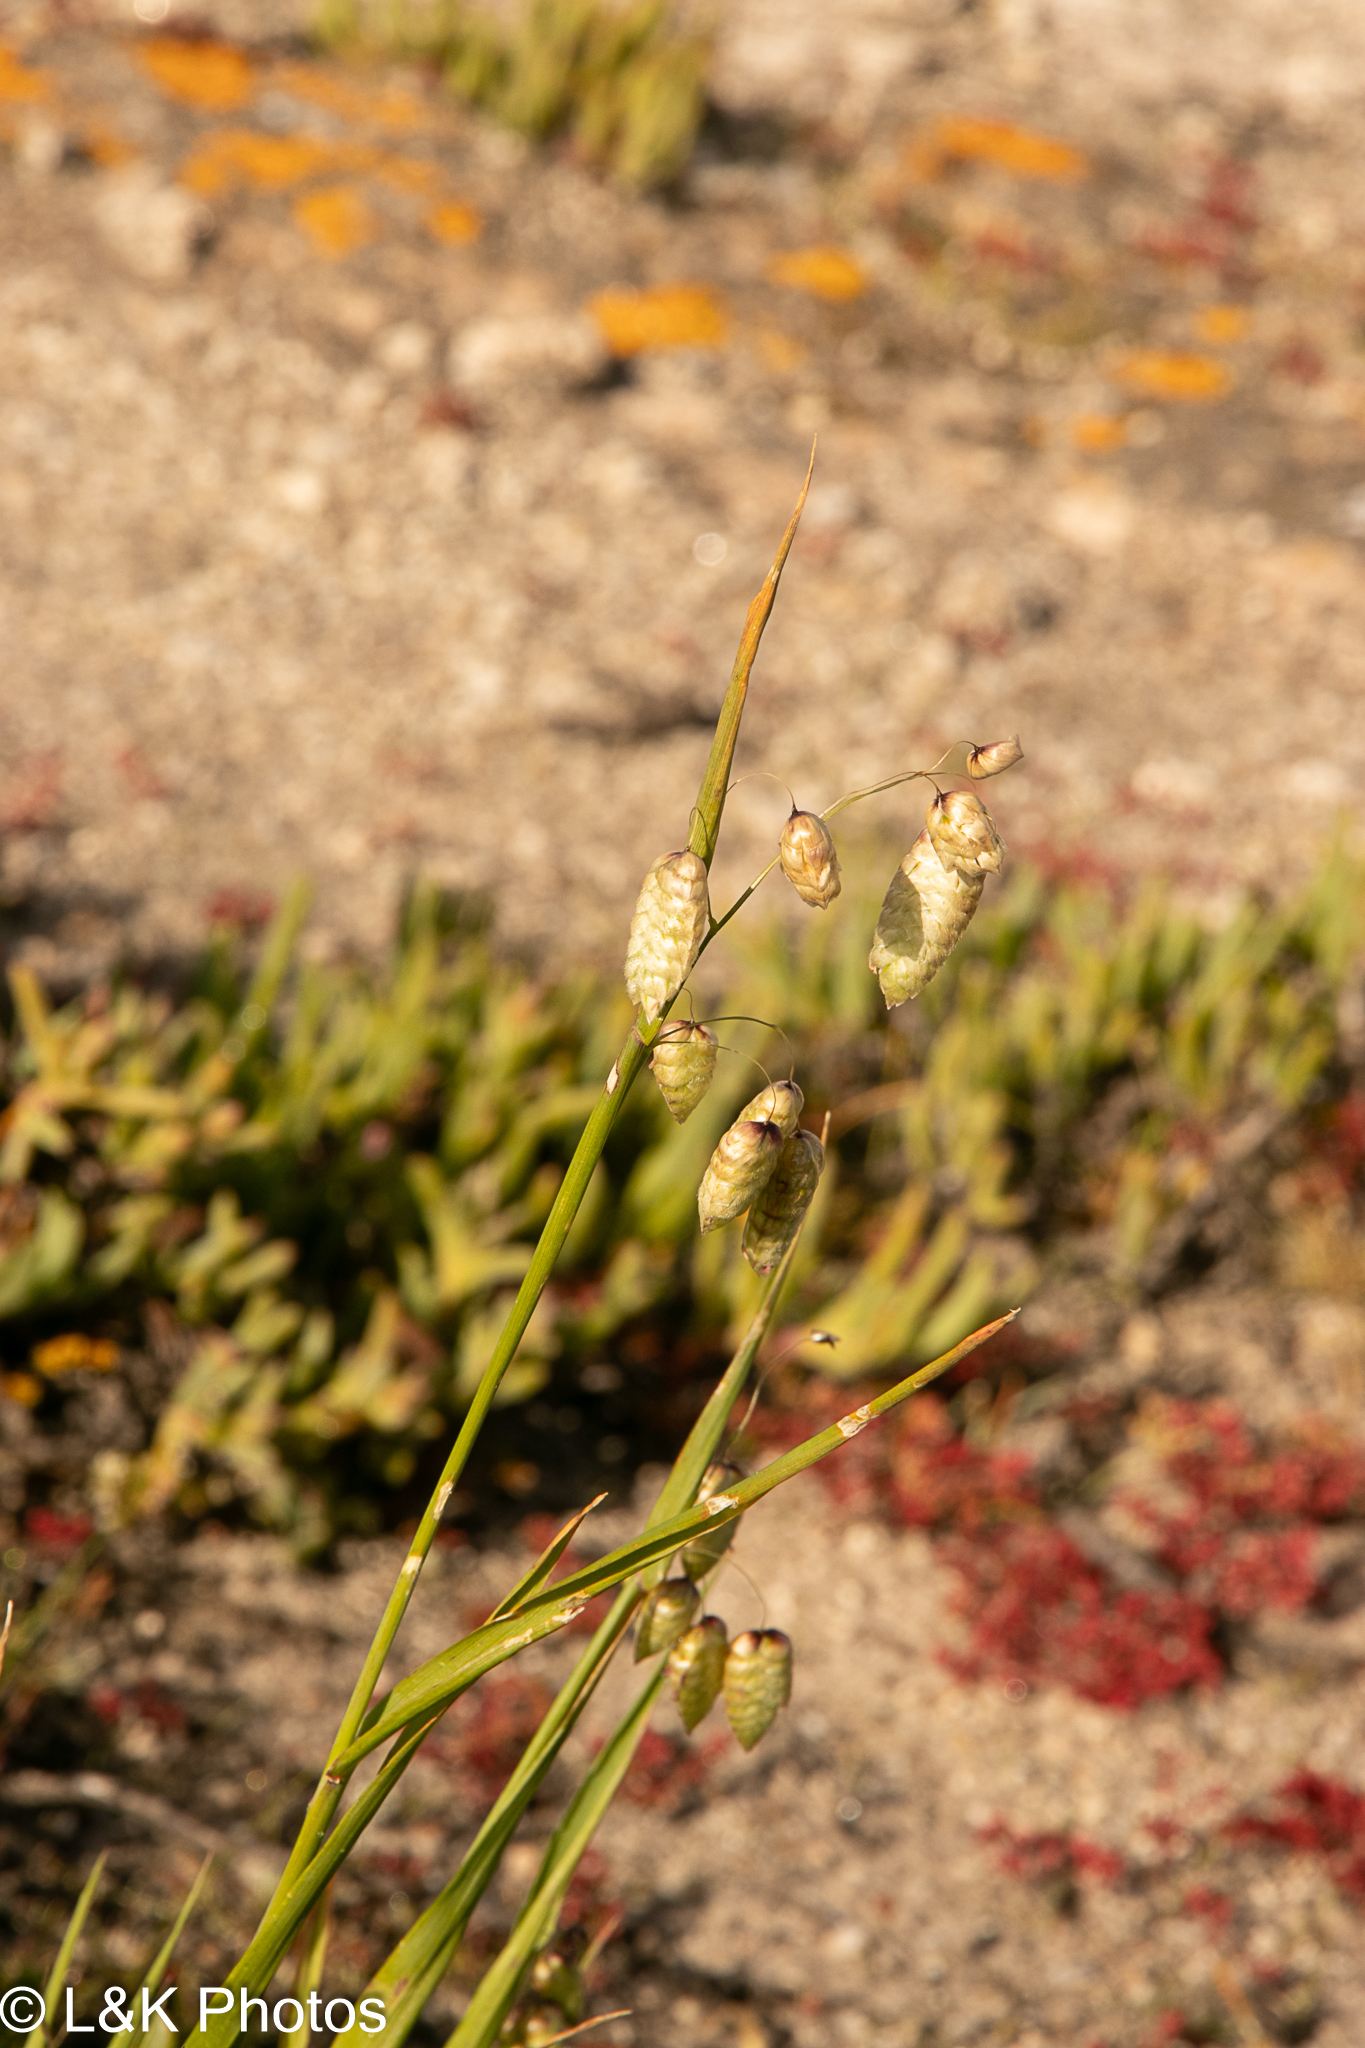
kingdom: Plantae
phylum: Tracheophyta
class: Liliopsida
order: Poales
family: Poaceae
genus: Briza
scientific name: Briza maxima
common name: Big quakinggrass
